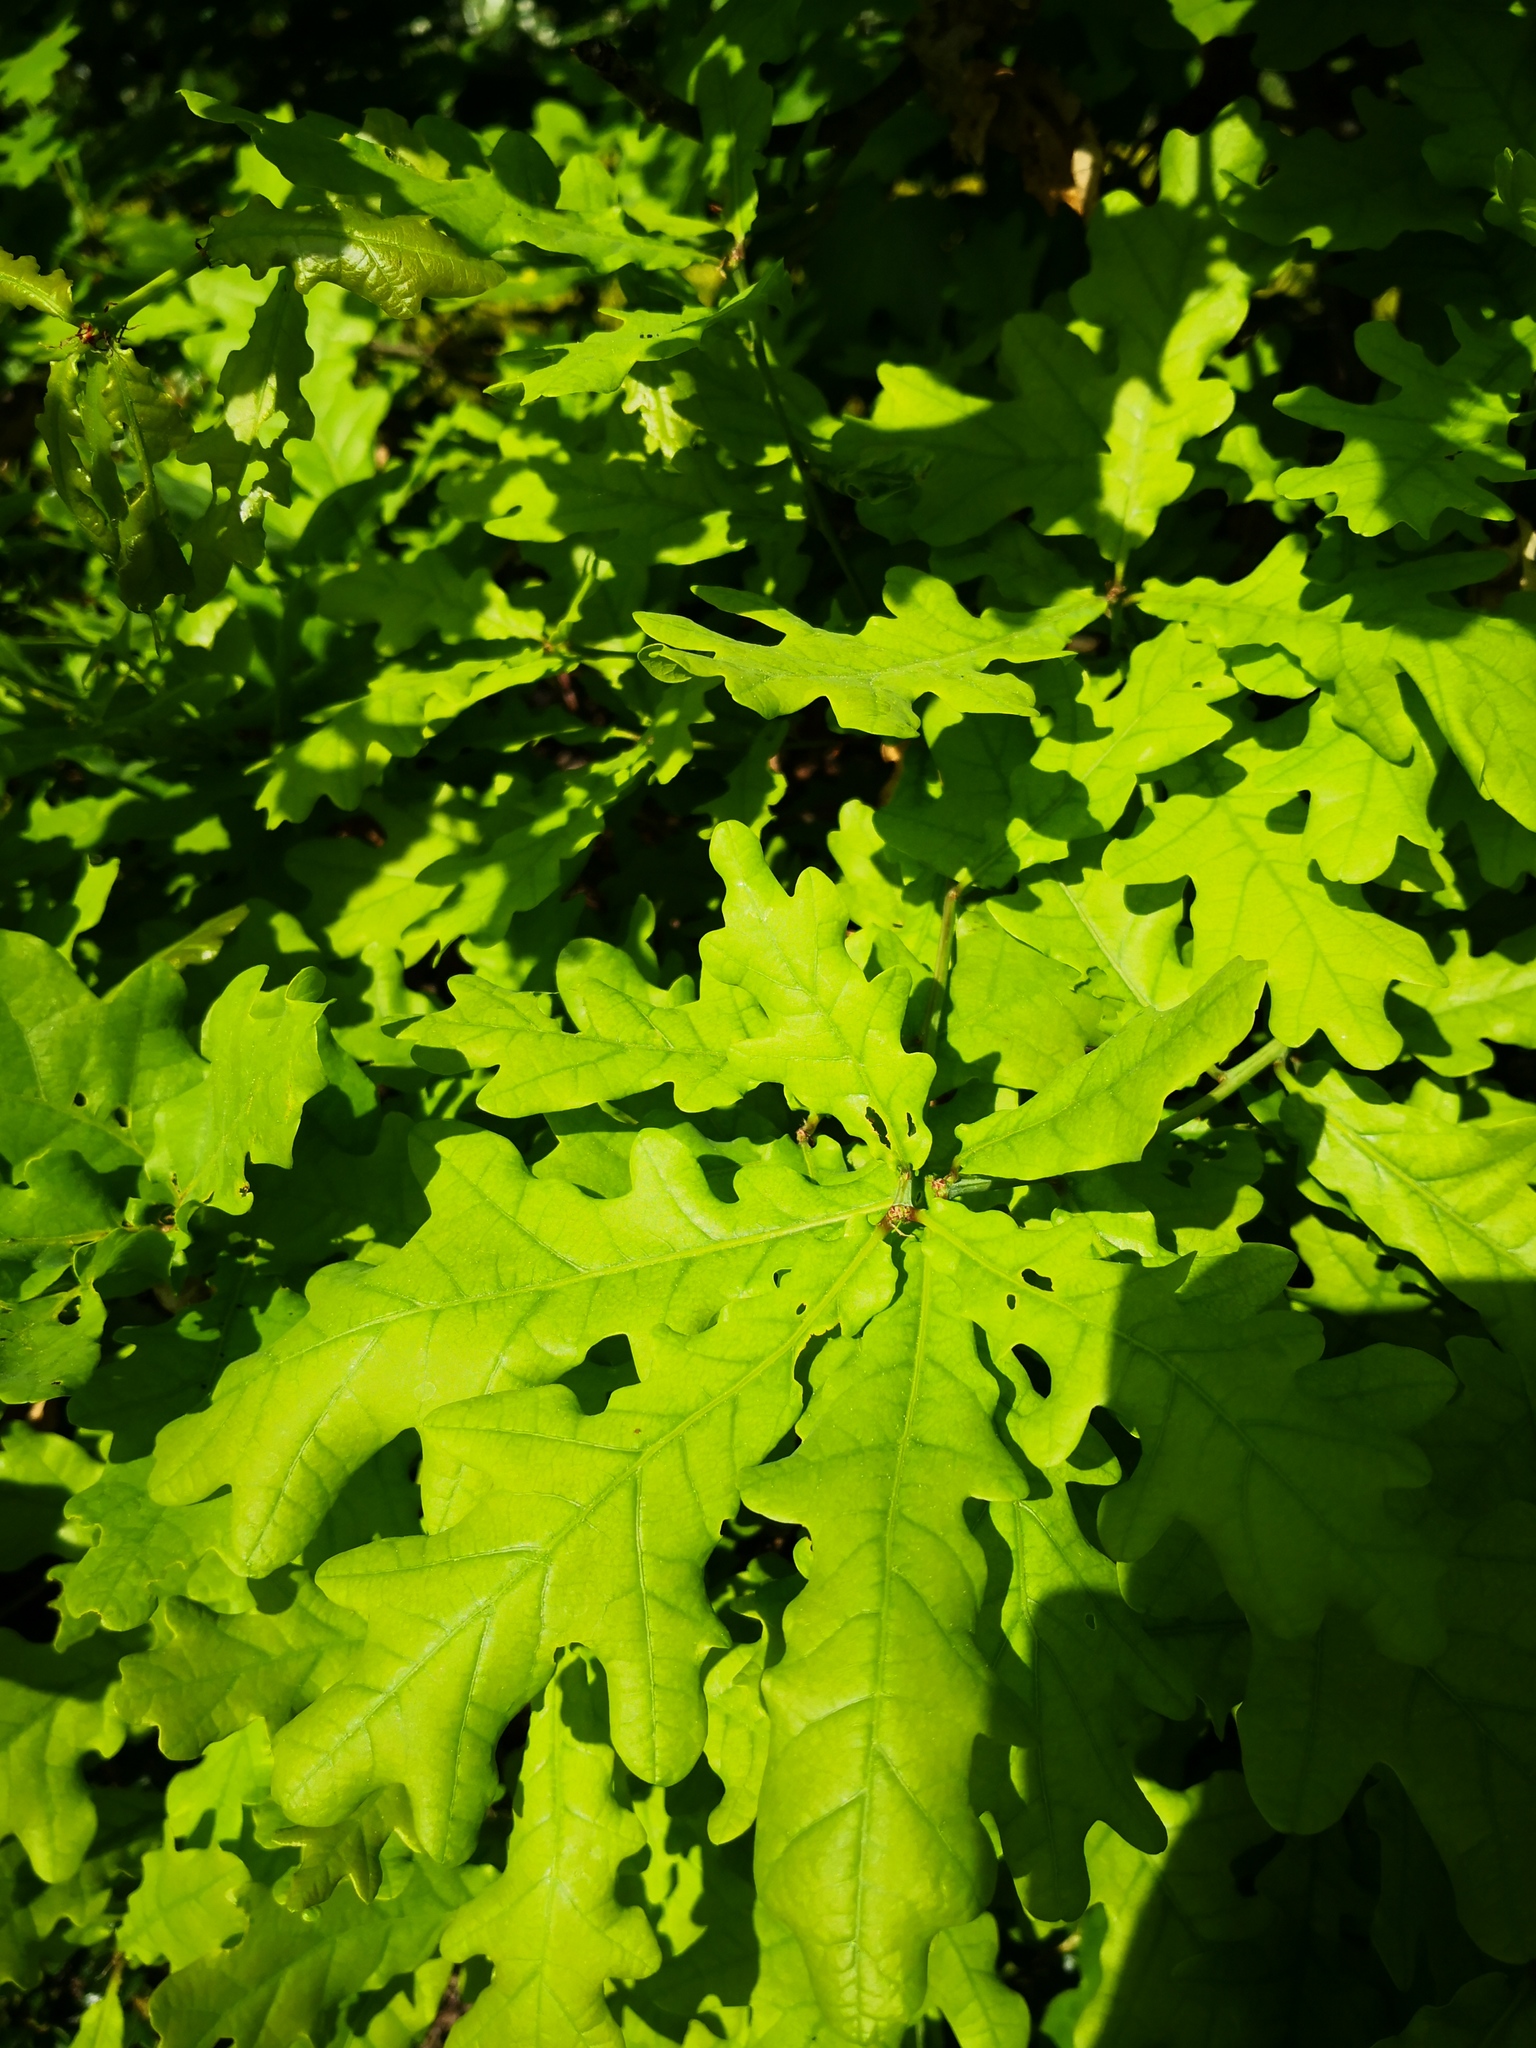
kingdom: Plantae
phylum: Tracheophyta
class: Magnoliopsida
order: Fagales
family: Fagaceae
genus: Quercus
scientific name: Quercus robur
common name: Pedunculate oak
